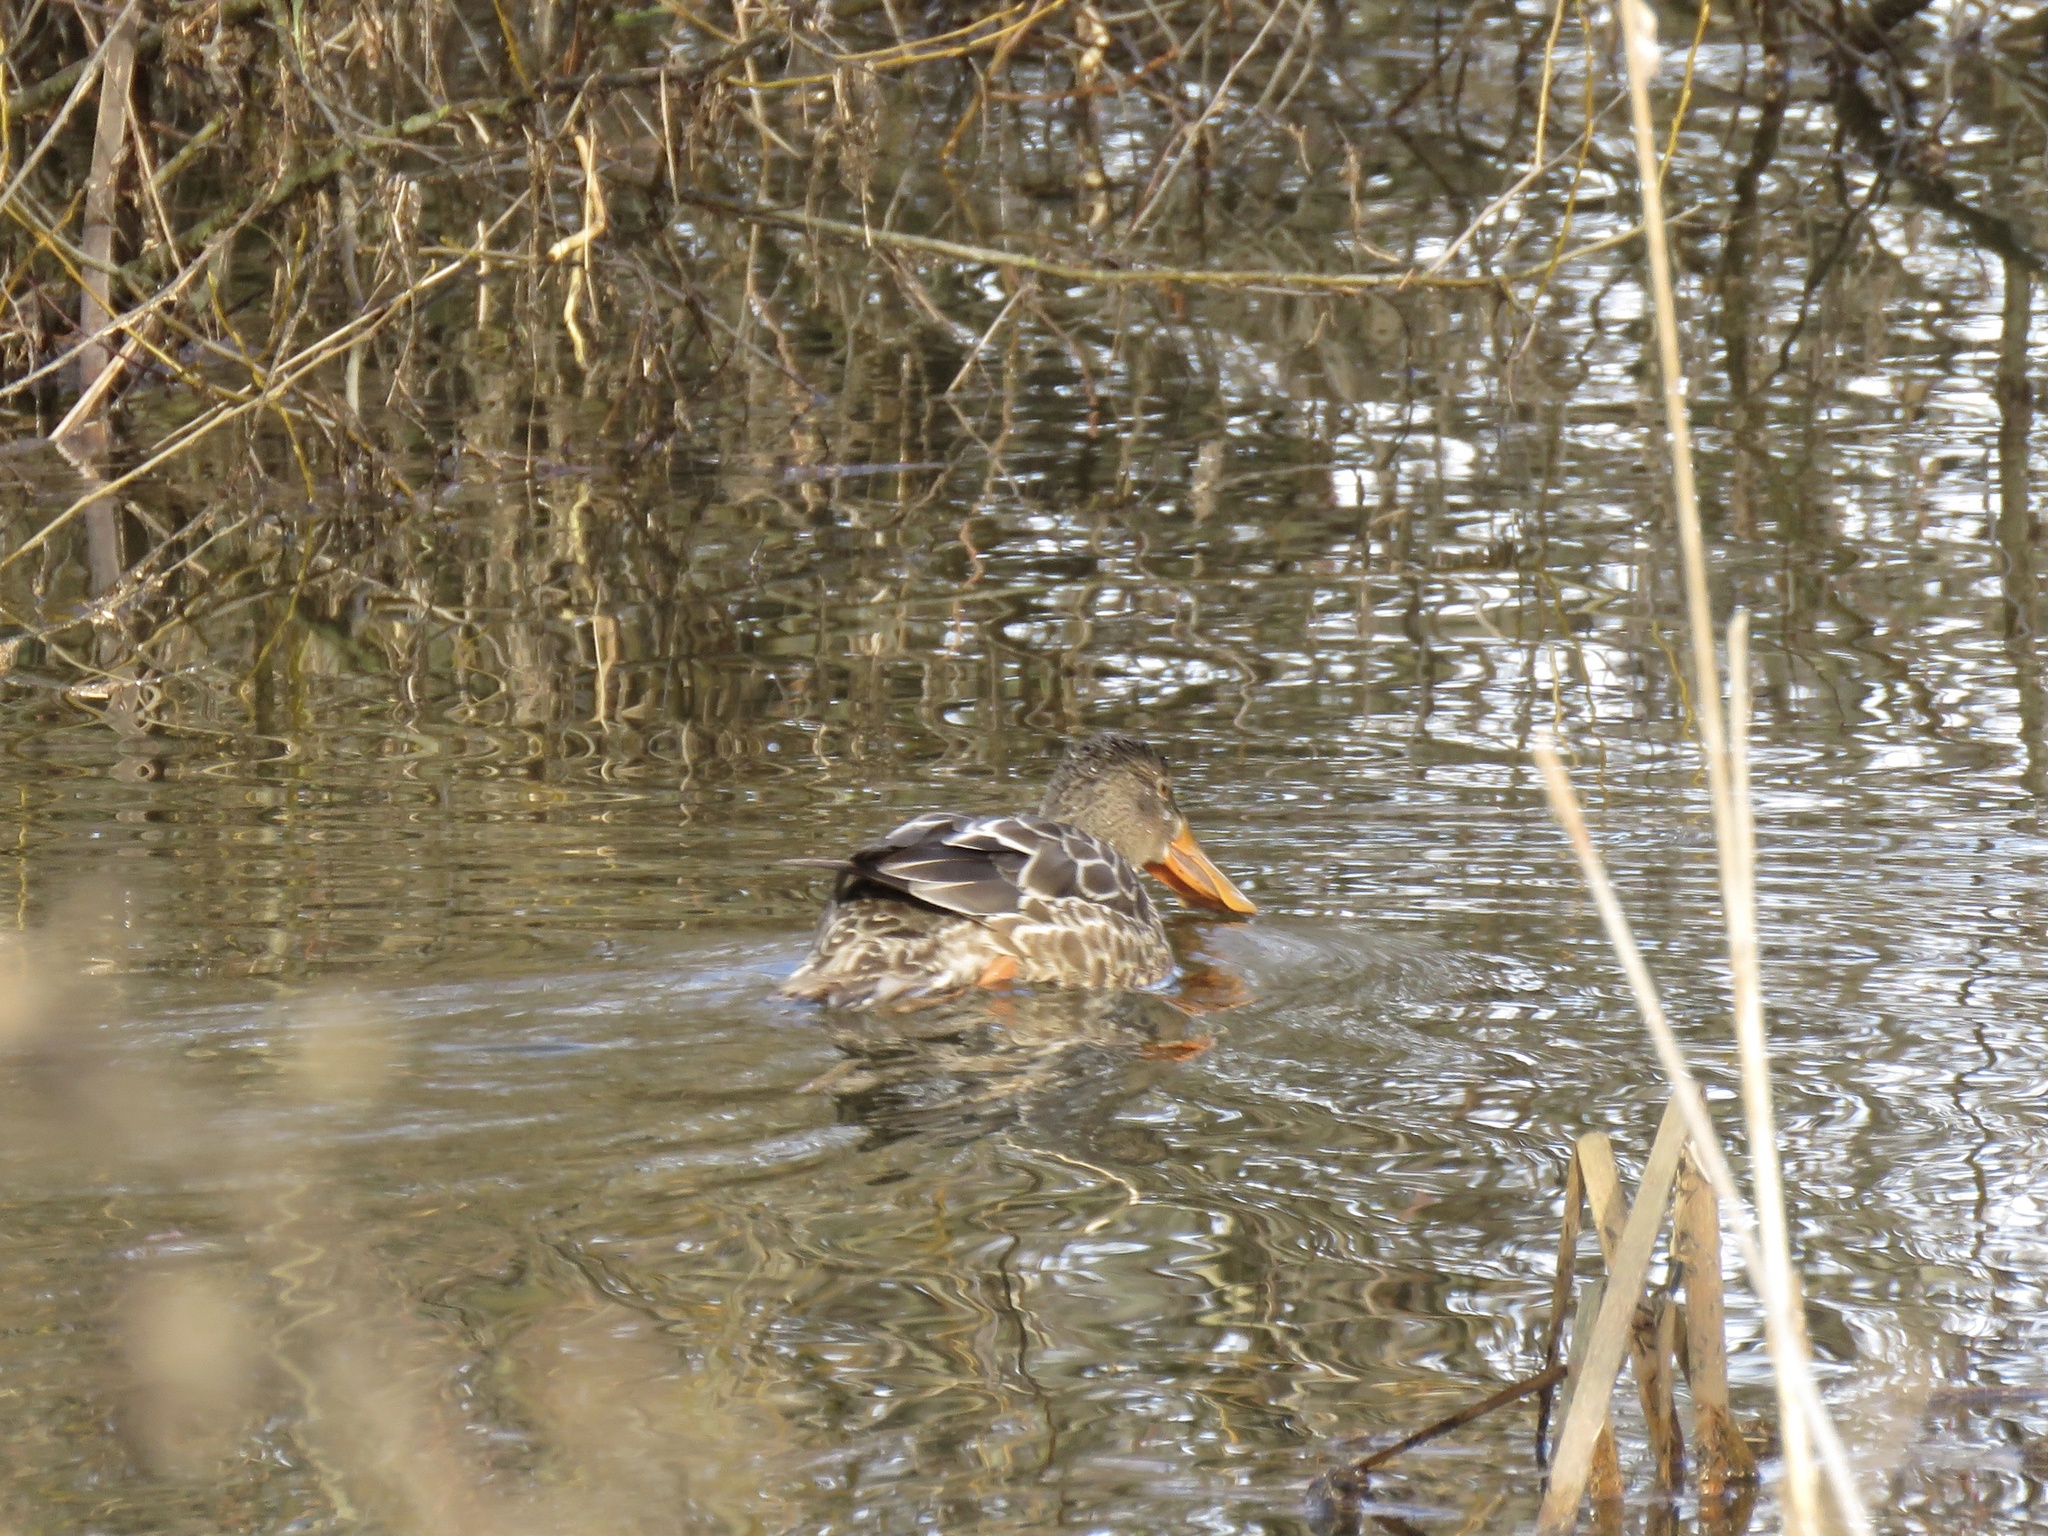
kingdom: Animalia
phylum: Chordata
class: Aves
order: Anseriformes
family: Anatidae
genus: Spatula
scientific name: Spatula clypeata
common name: Northern shoveler
